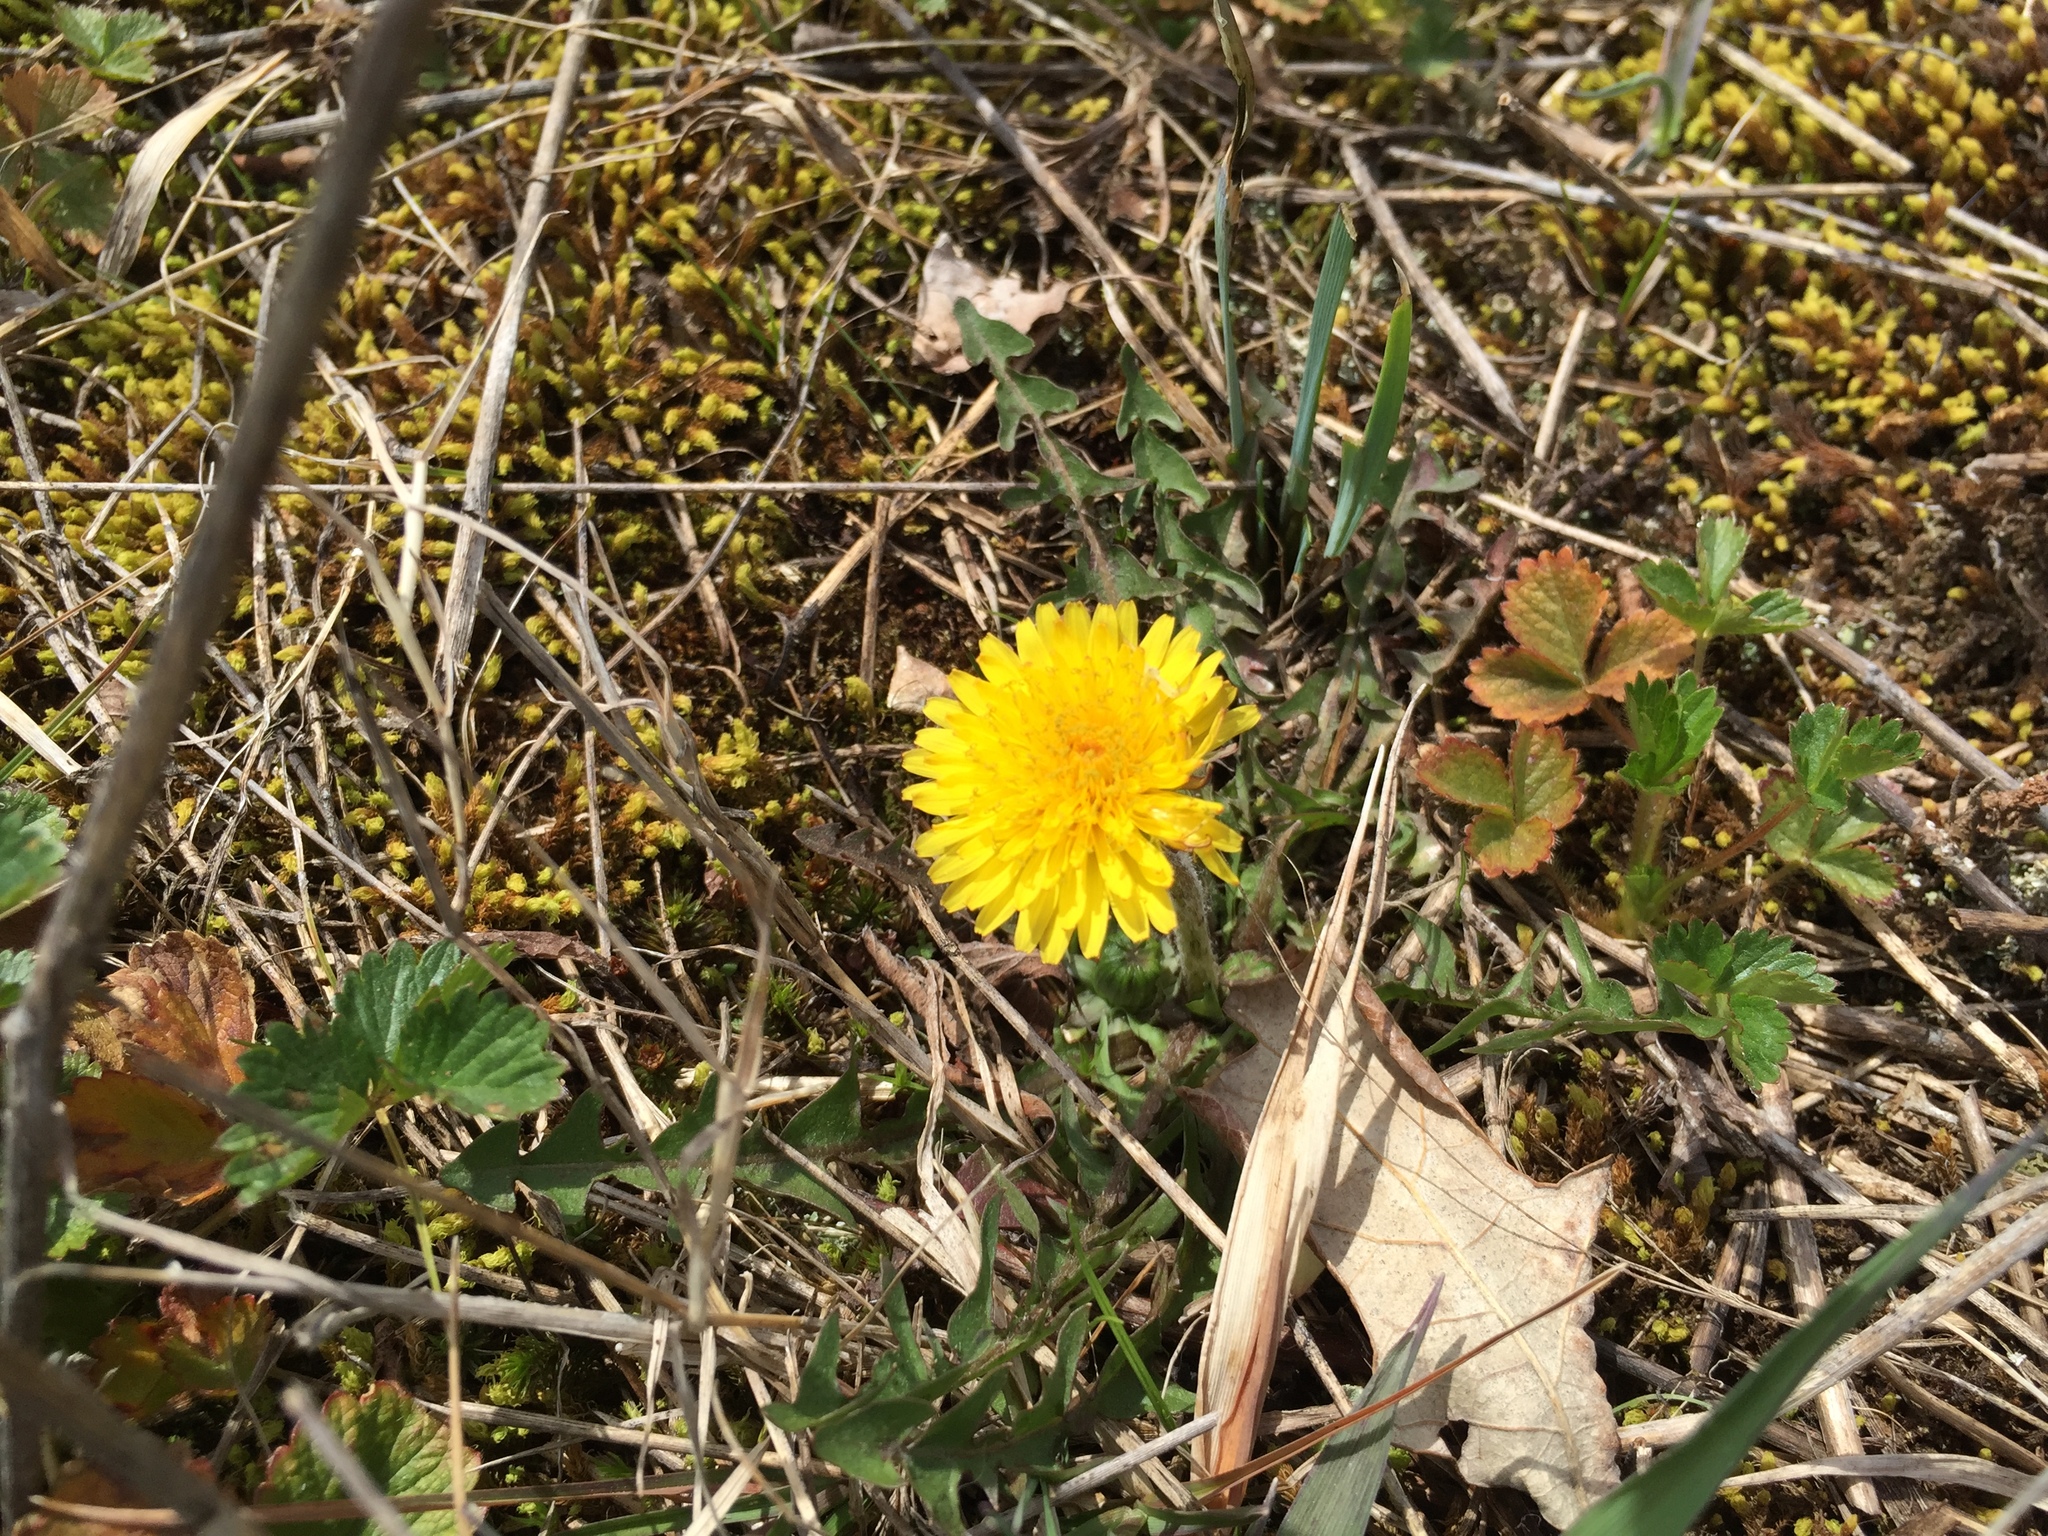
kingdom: Plantae
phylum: Tracheophyta
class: Magnoliopsida
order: Asterales
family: Asteraceae
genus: Taraxacum
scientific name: Taraxacum officinale
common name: Common dandelion
